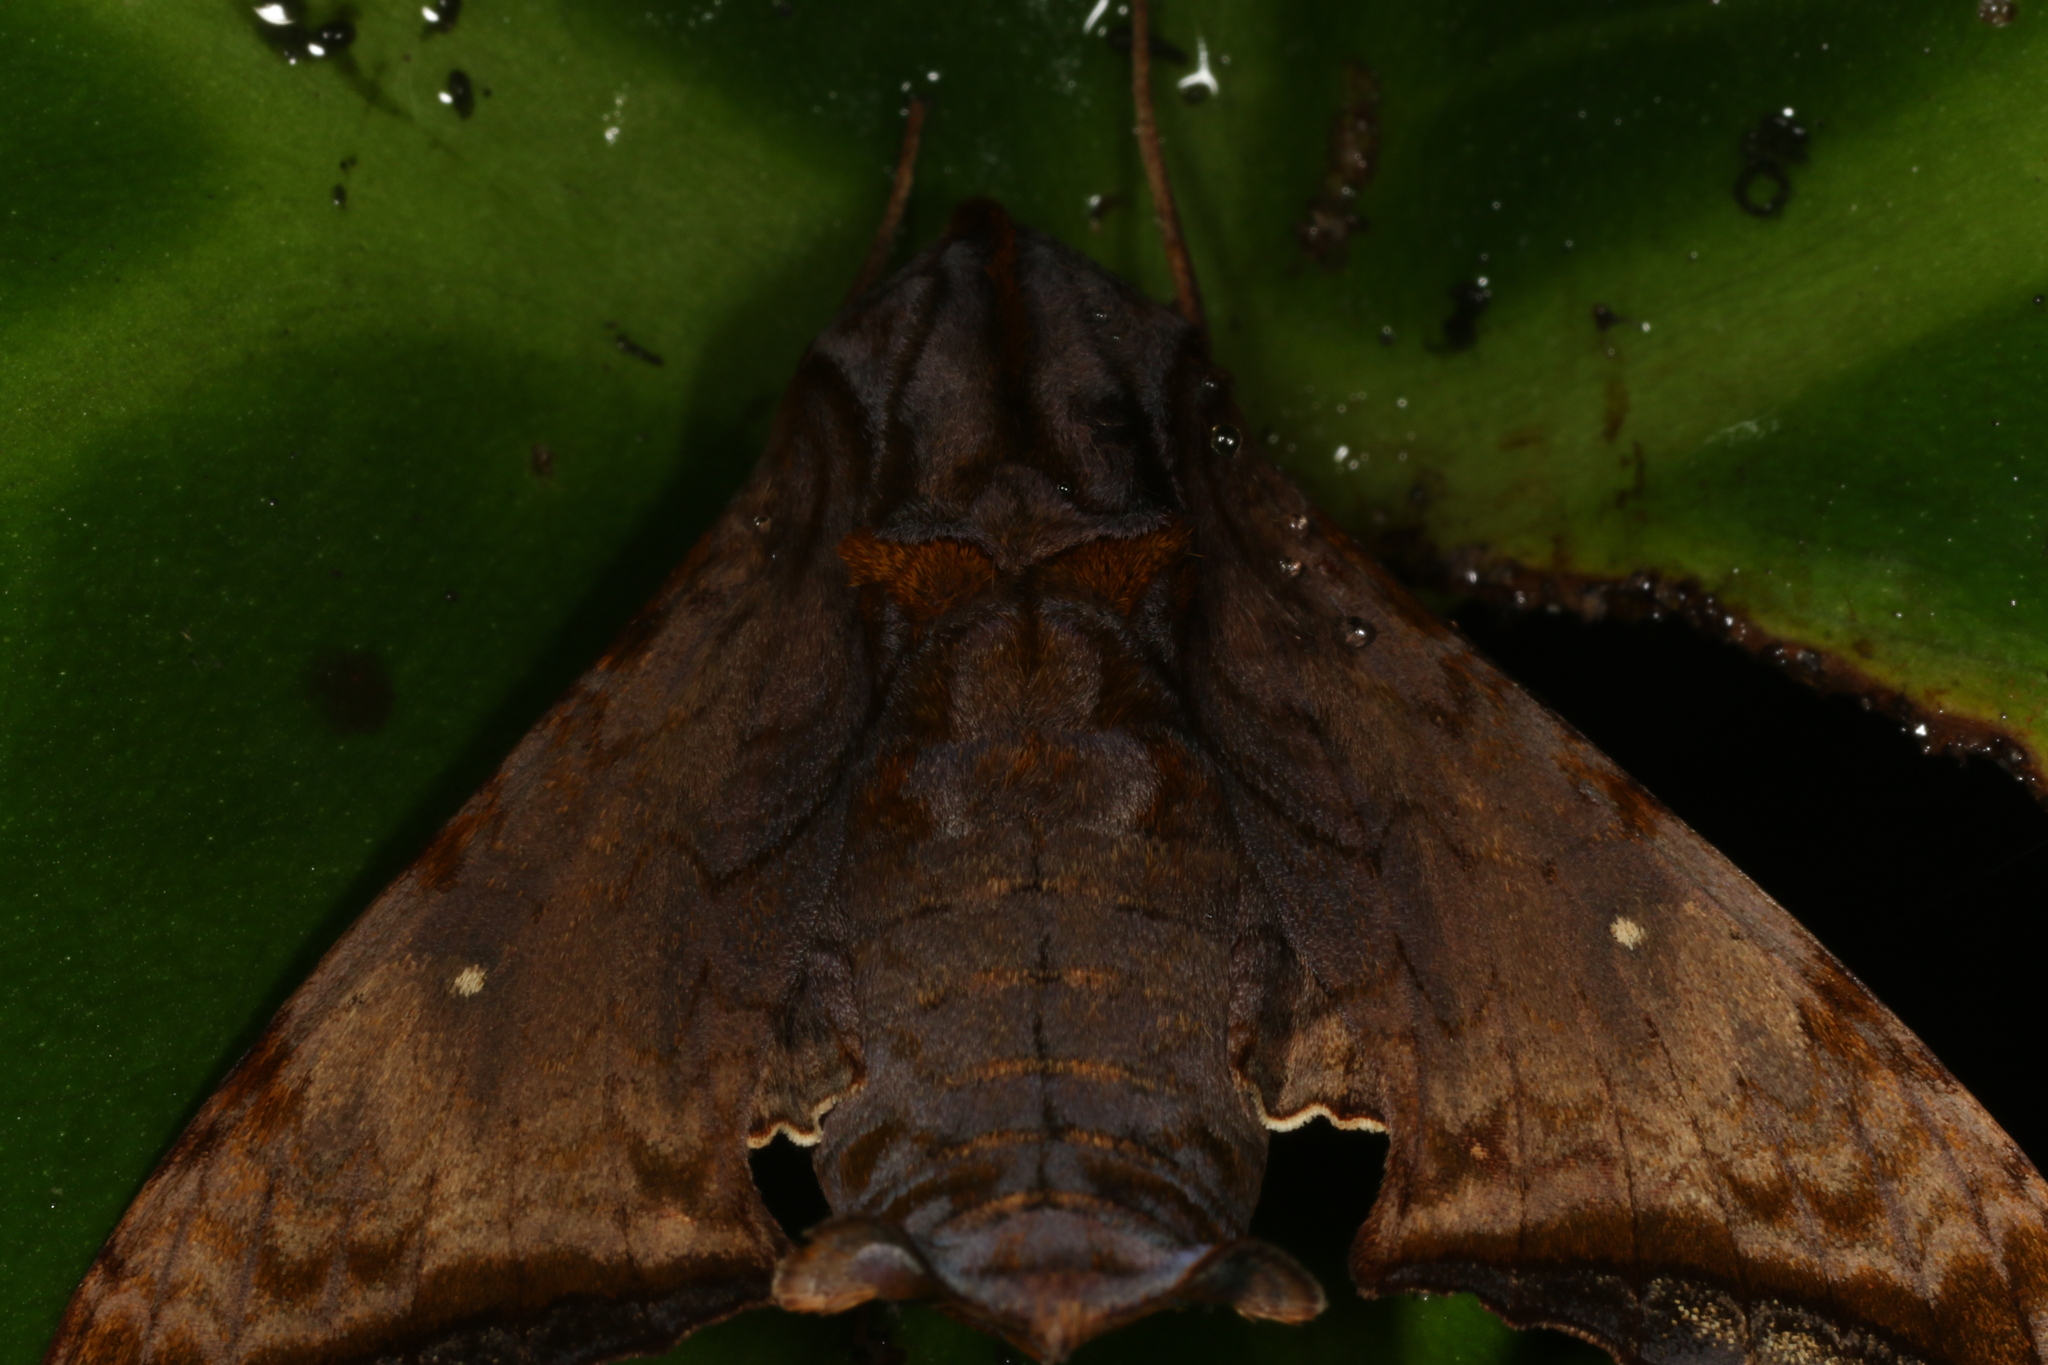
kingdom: Animalia
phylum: Arthropoda
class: Insecta
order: Lepidoptera
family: Sphingidae
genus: Nyceryx
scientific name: Nyceryx riscus
